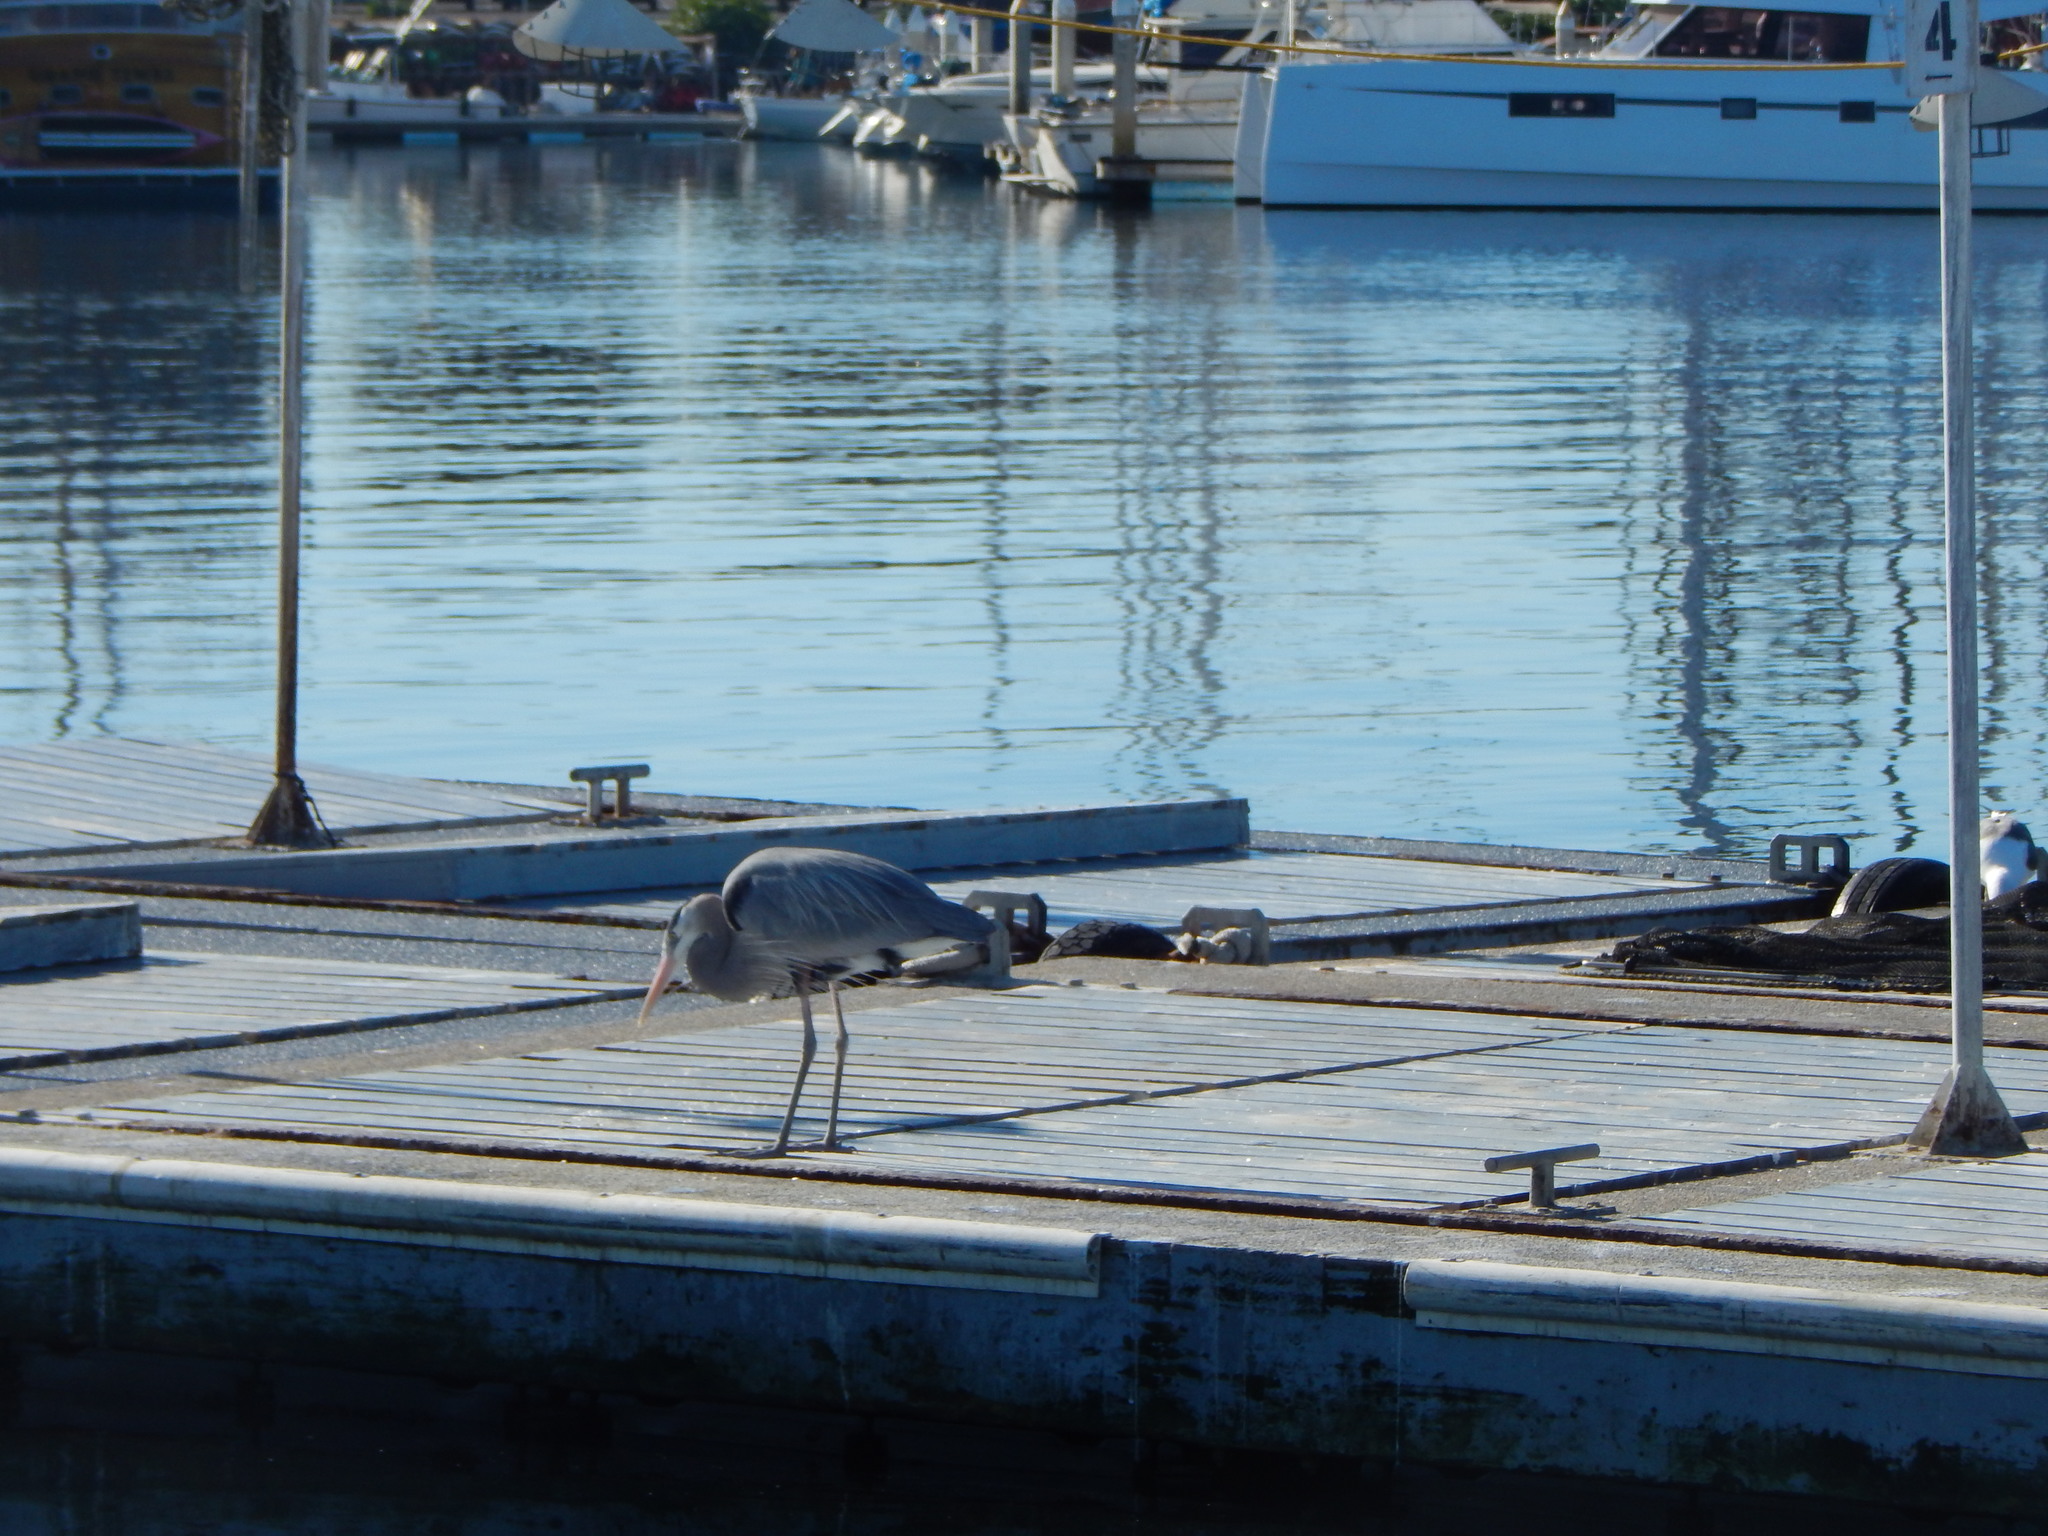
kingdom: Animalia
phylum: Chordata
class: Aves
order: Pelecaniformes
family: Ardeidae
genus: Ardea
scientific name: Ardea herodias
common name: Great blue heron
